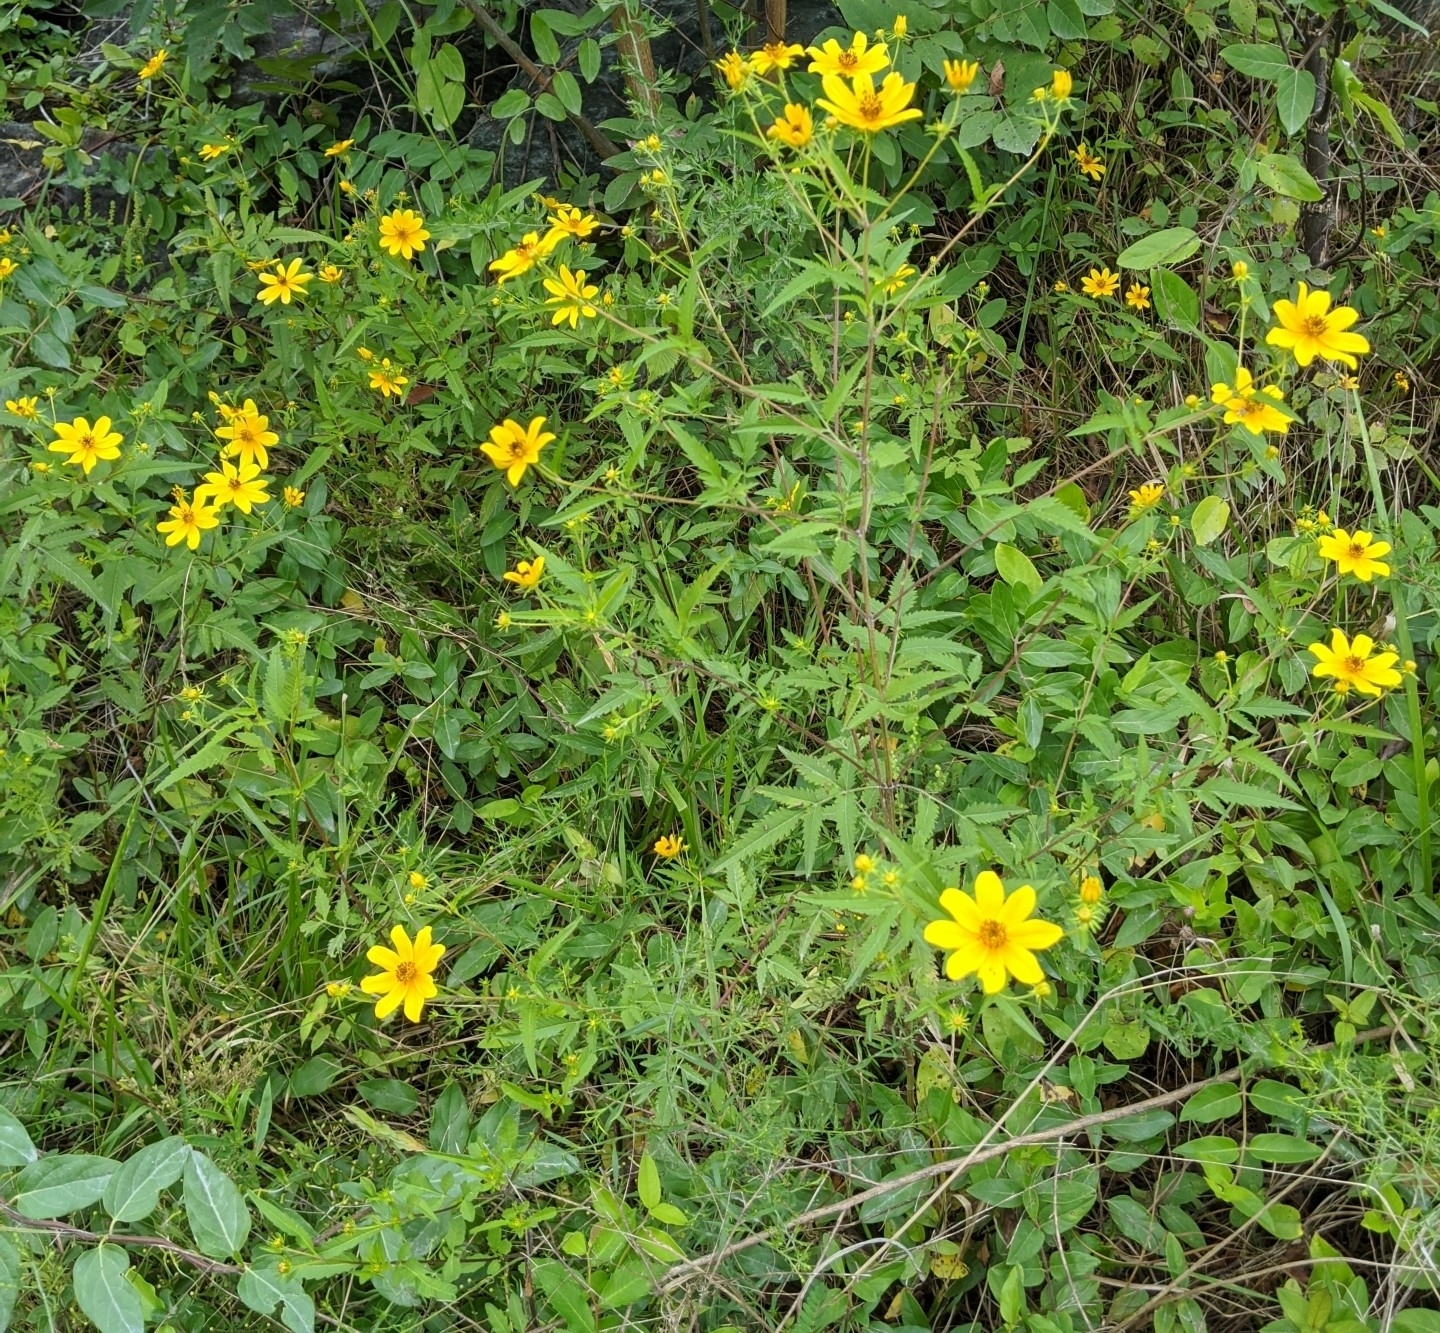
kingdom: Plantae
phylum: Tracheophyta
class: Magnoliopsida
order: Asterales
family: Asteraceae
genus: Bidens
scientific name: Bidens aristosa
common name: Western tickseed
